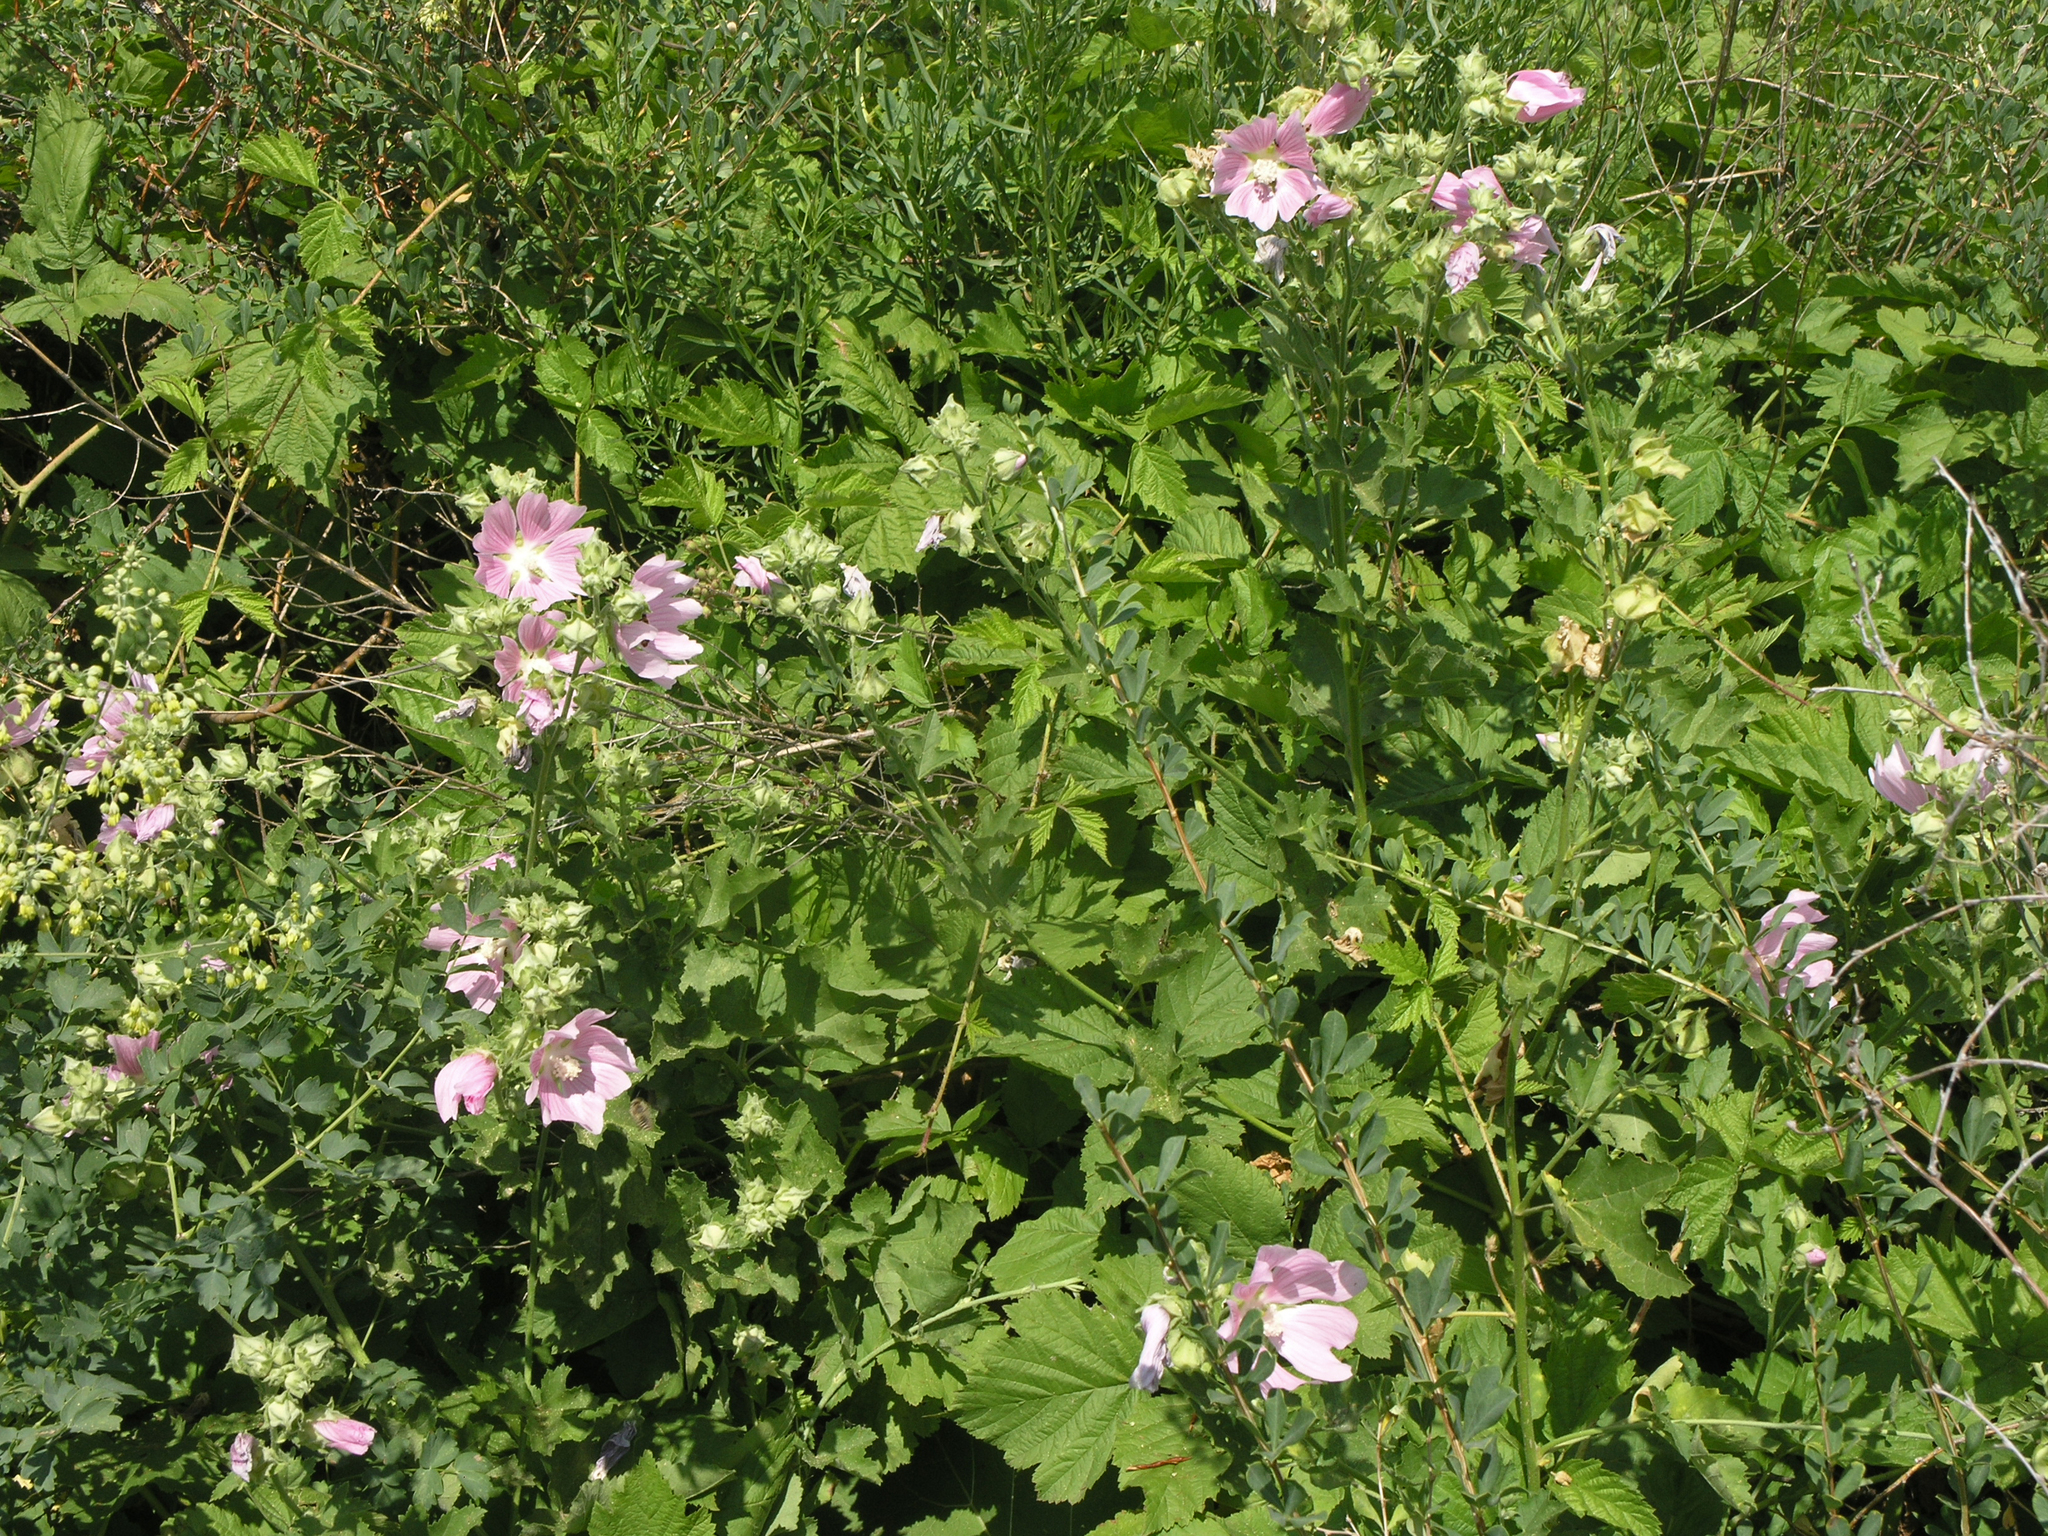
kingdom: Plantae
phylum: Tracheophyta
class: Magnoliopsida
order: Malvales
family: Malvaceae
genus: Malva
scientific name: Malva thuringiaca
